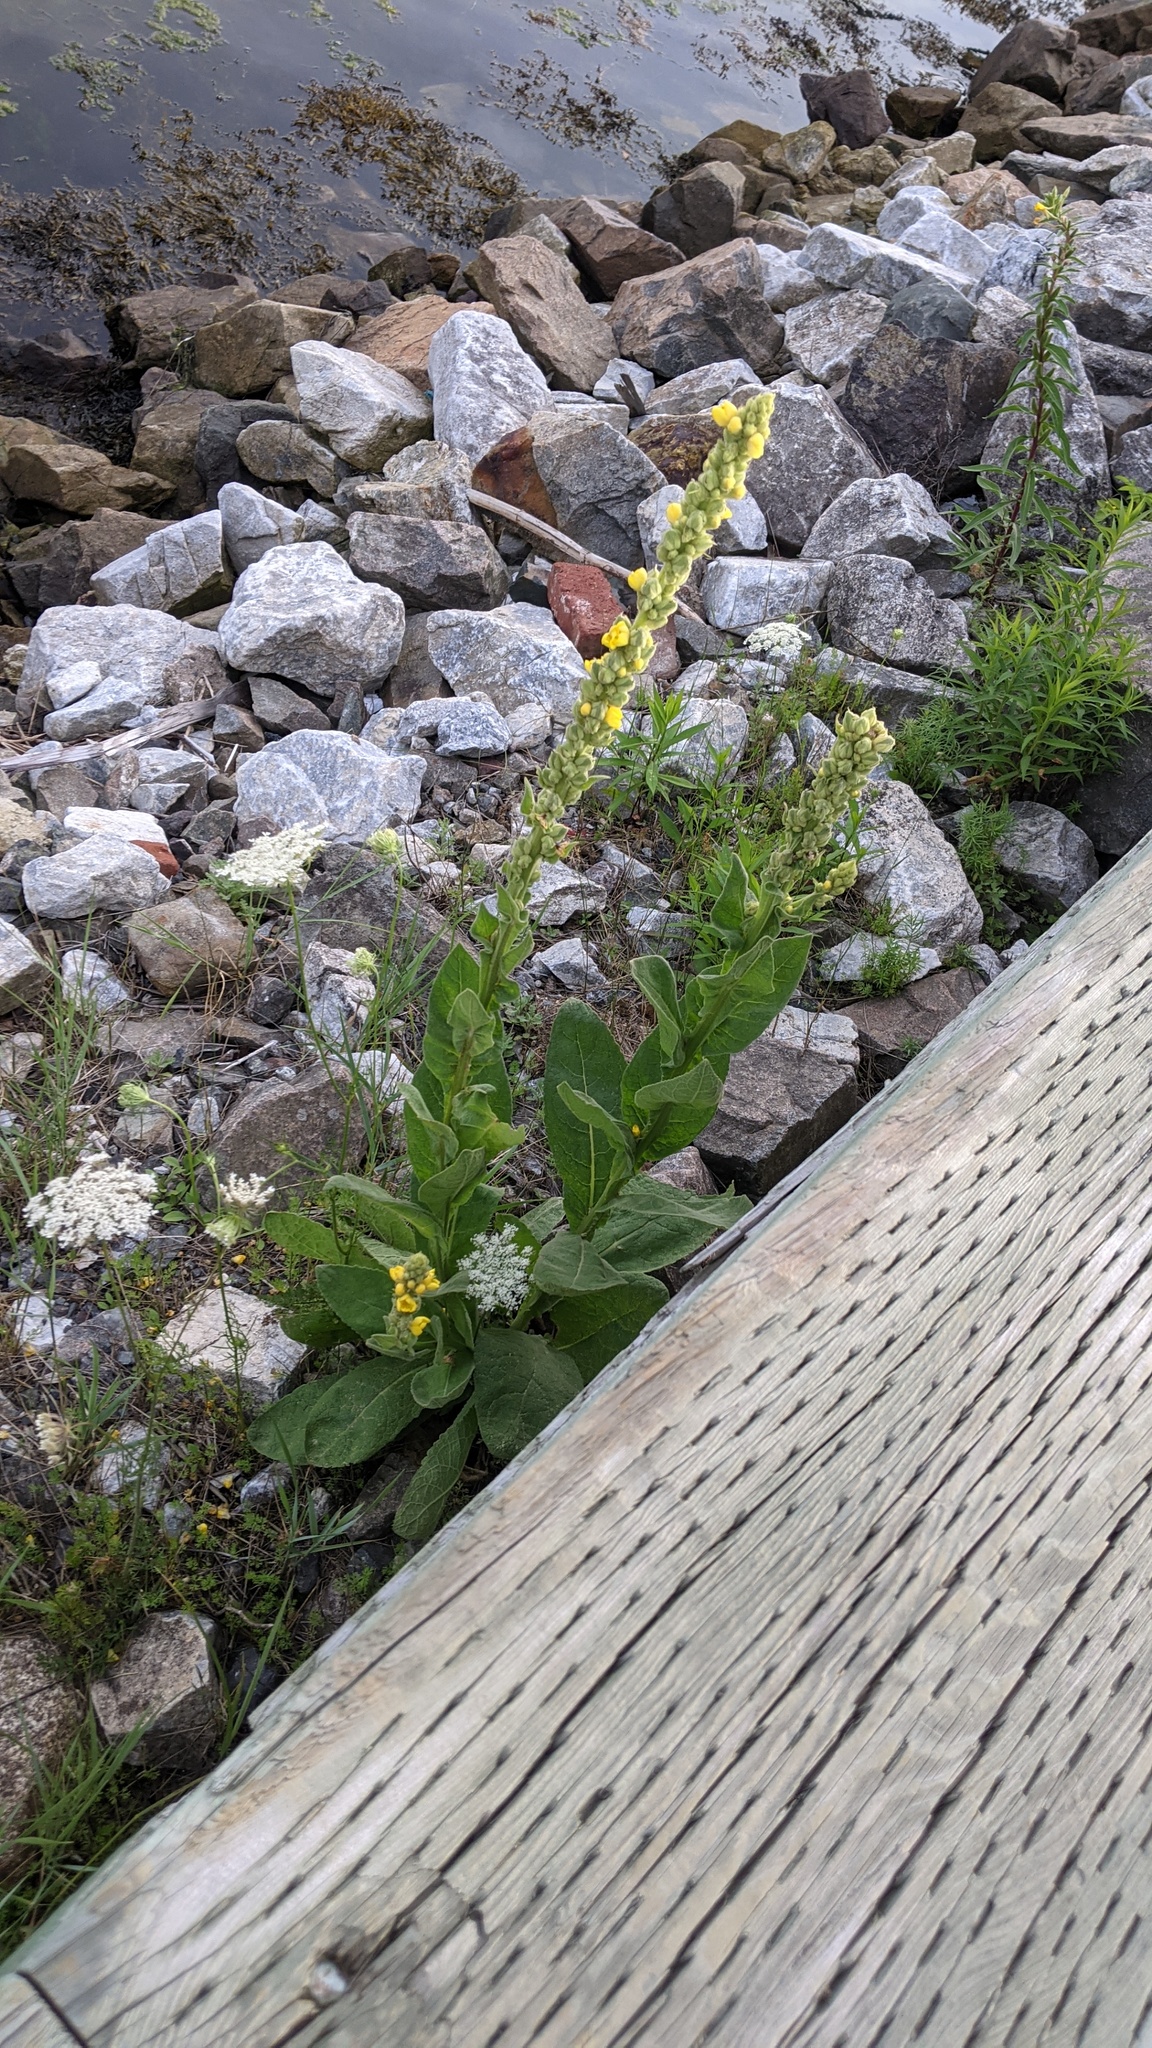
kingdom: Plantae
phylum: Tracheophyta
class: Magnoliopsida
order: Lamiales
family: Scrophulariaceae
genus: Verbascum
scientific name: Verbascum thapsus
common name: Common mullein
